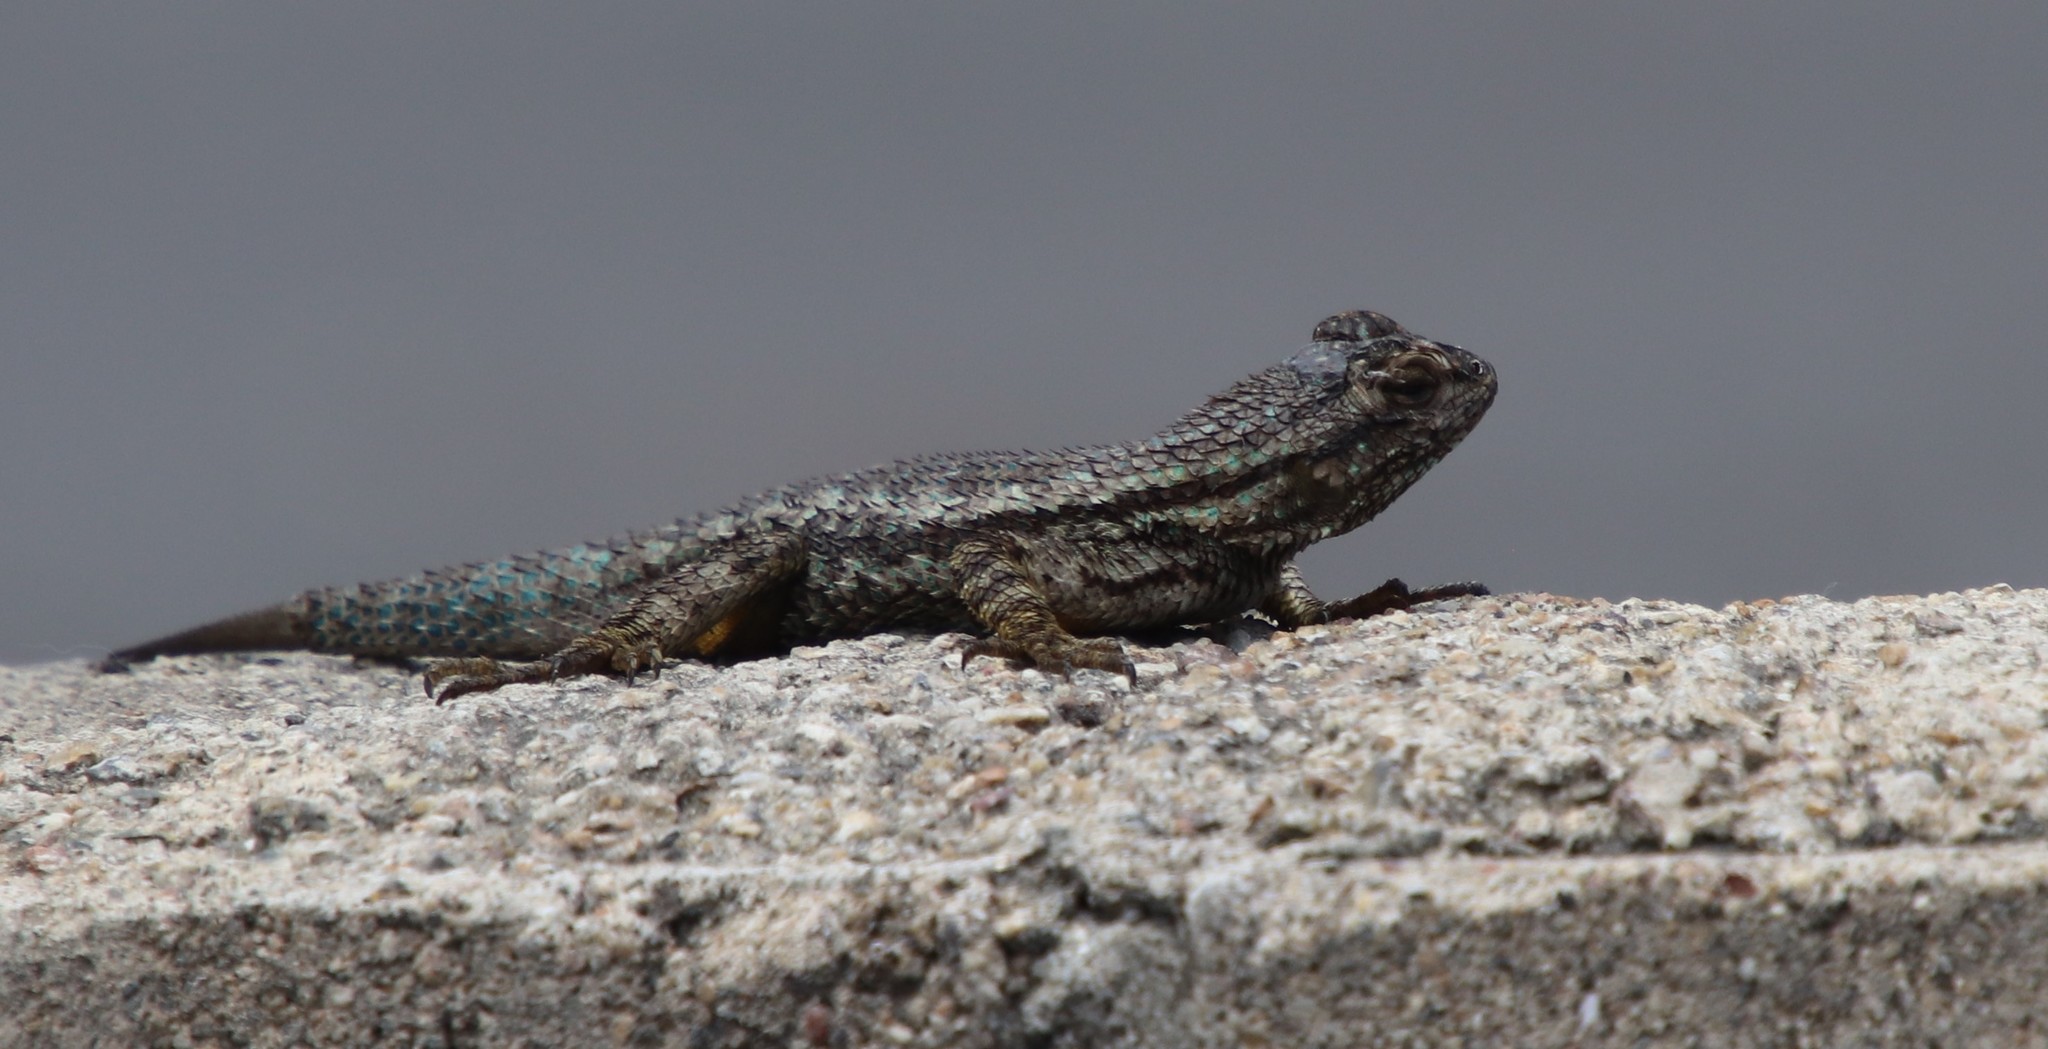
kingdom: Animalia
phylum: Chordata
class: Squamata
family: Phrynosomatidae
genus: Sceloporus
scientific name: Sceloporus occidentalis
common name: Western fence lizard
